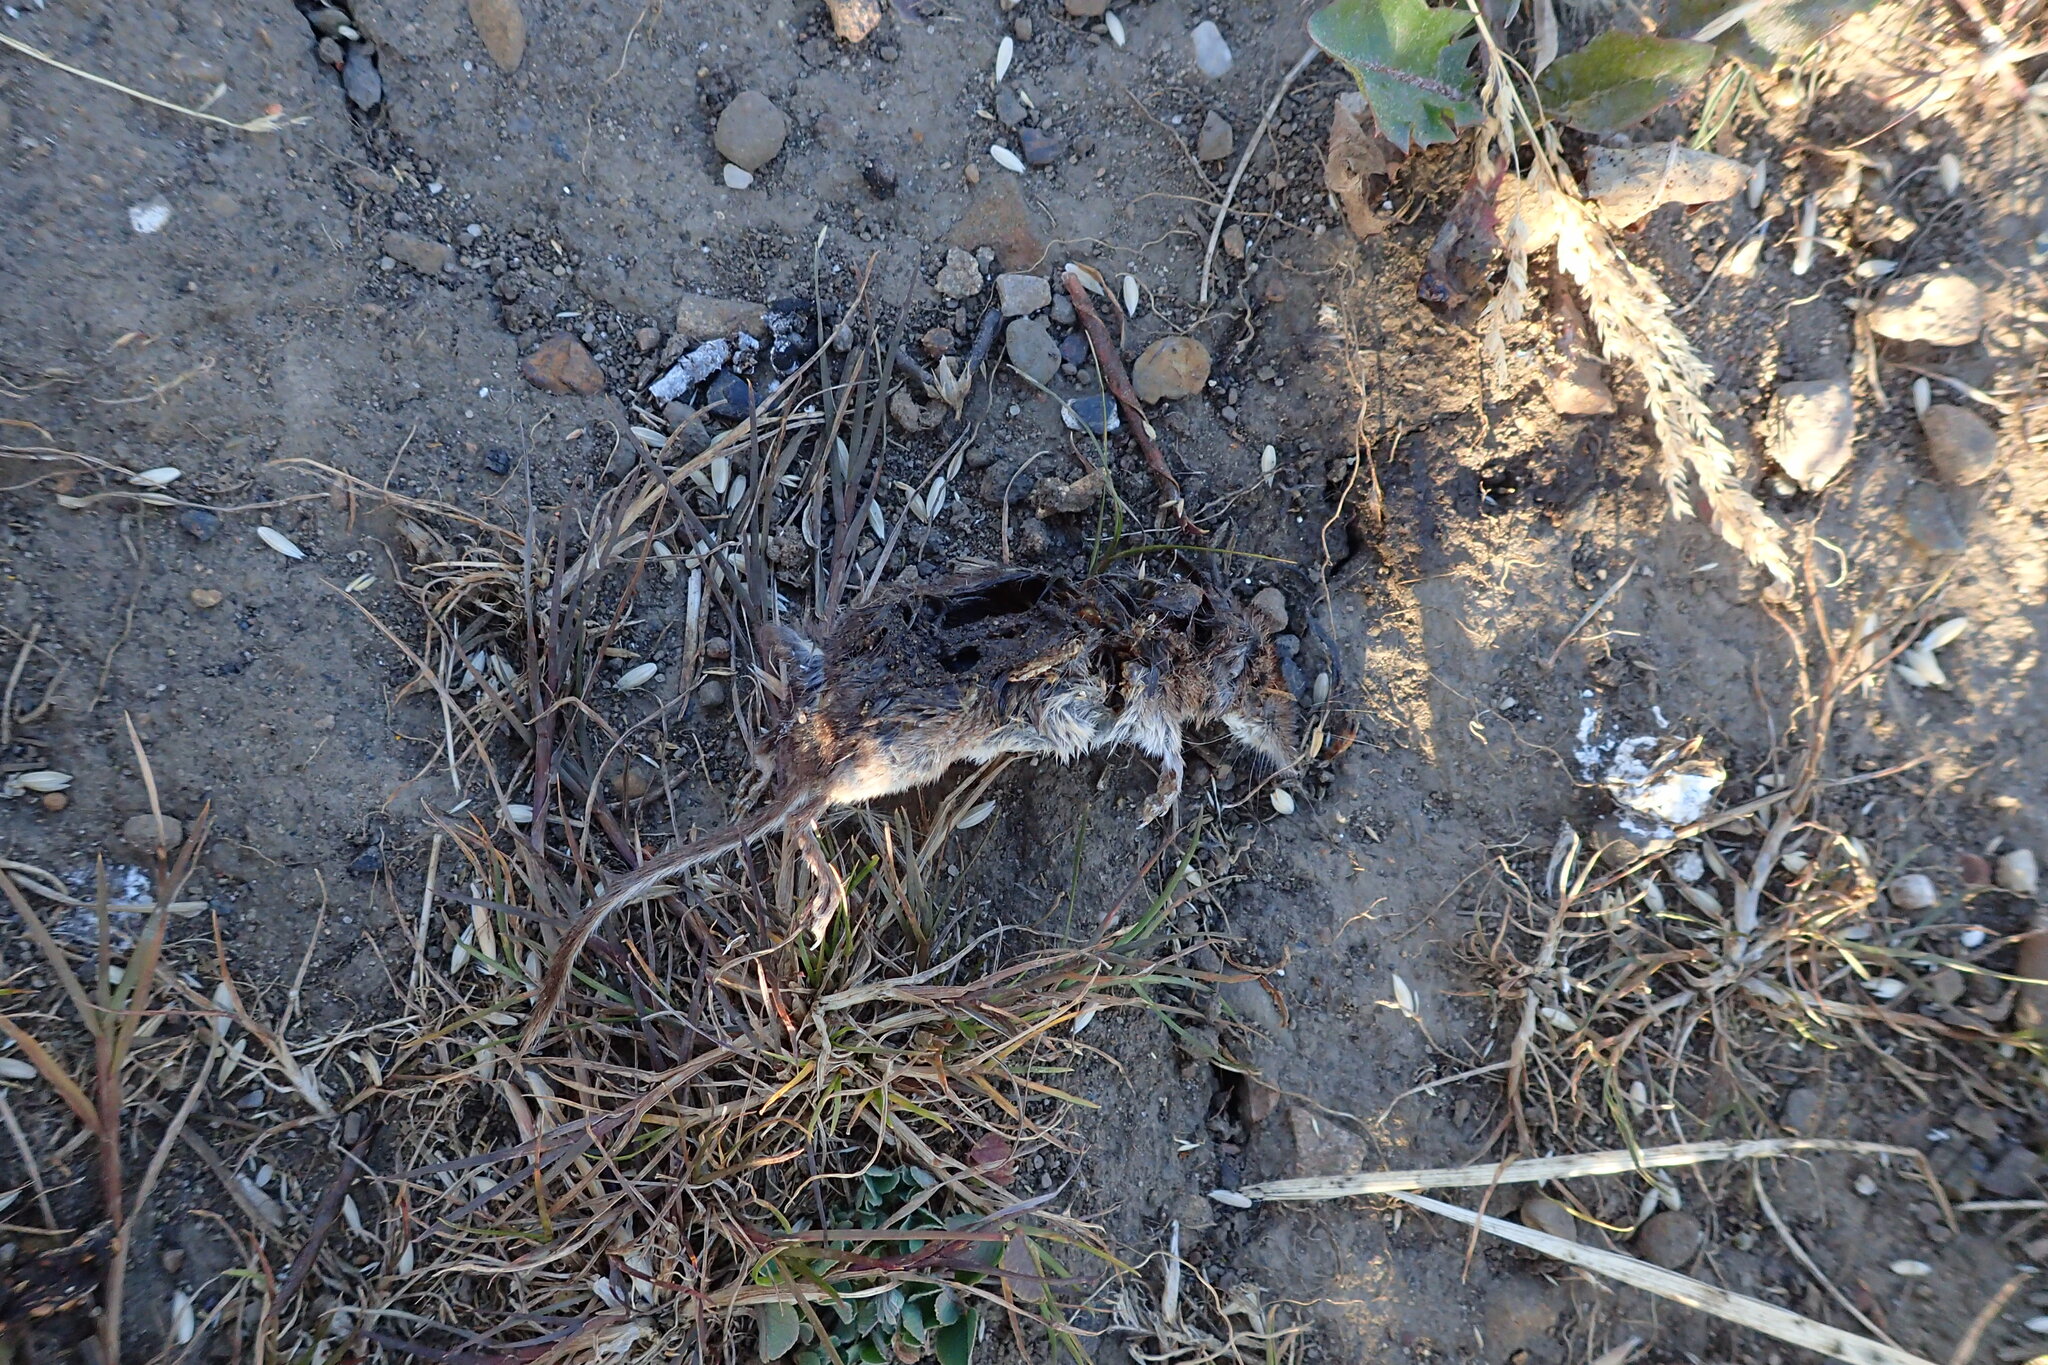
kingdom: Animalia
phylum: Chordata
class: Mammalia
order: Soricomorpha
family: Soricidae
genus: Sorex
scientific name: Sorex minutus
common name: Eurasian pygmy shrew
